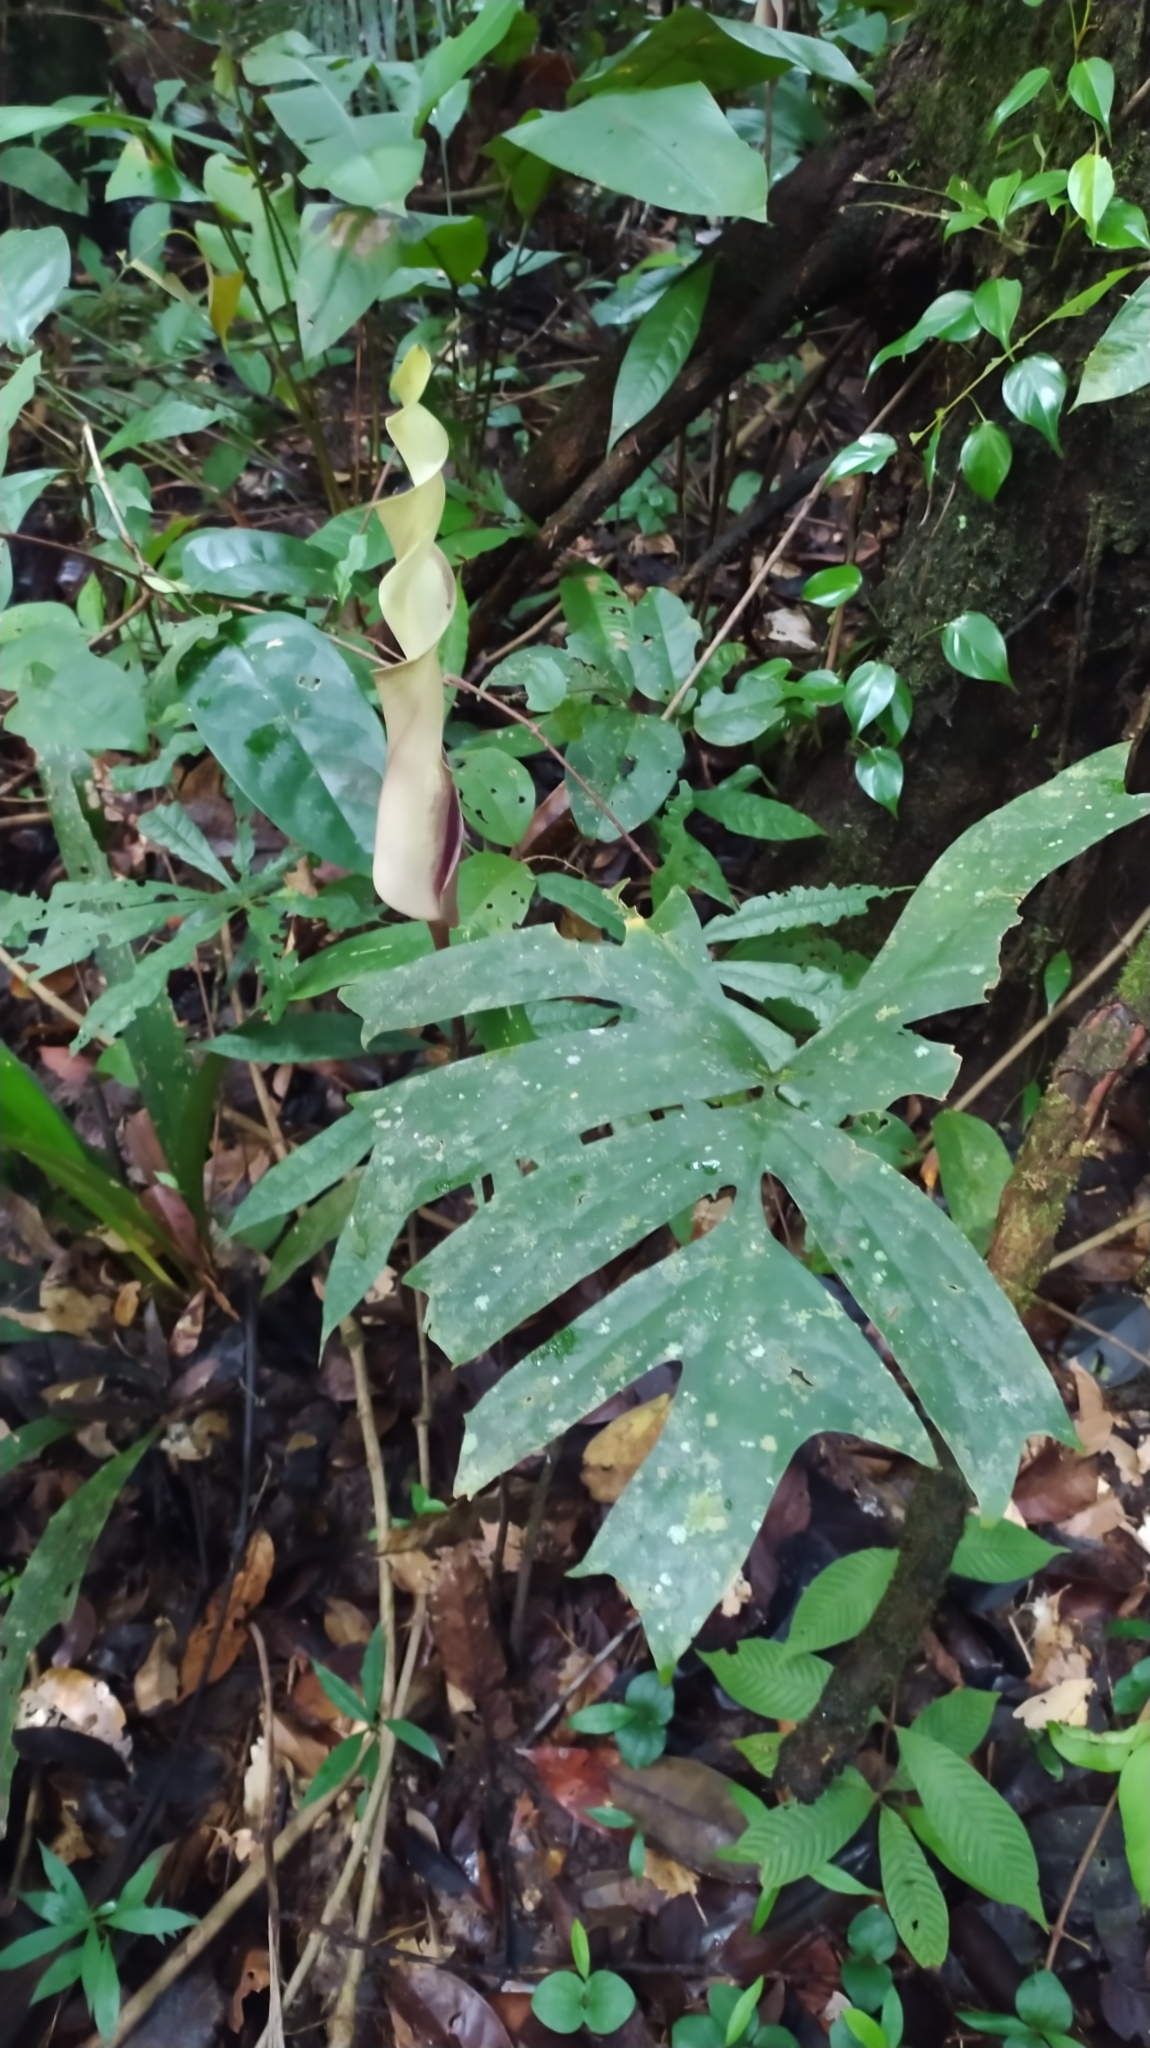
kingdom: Plantae
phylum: Tracheophyta
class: Liliopsida
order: Alismatales
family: Araceae
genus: Anaphyllopsis
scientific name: Anaphyllopsis americana
